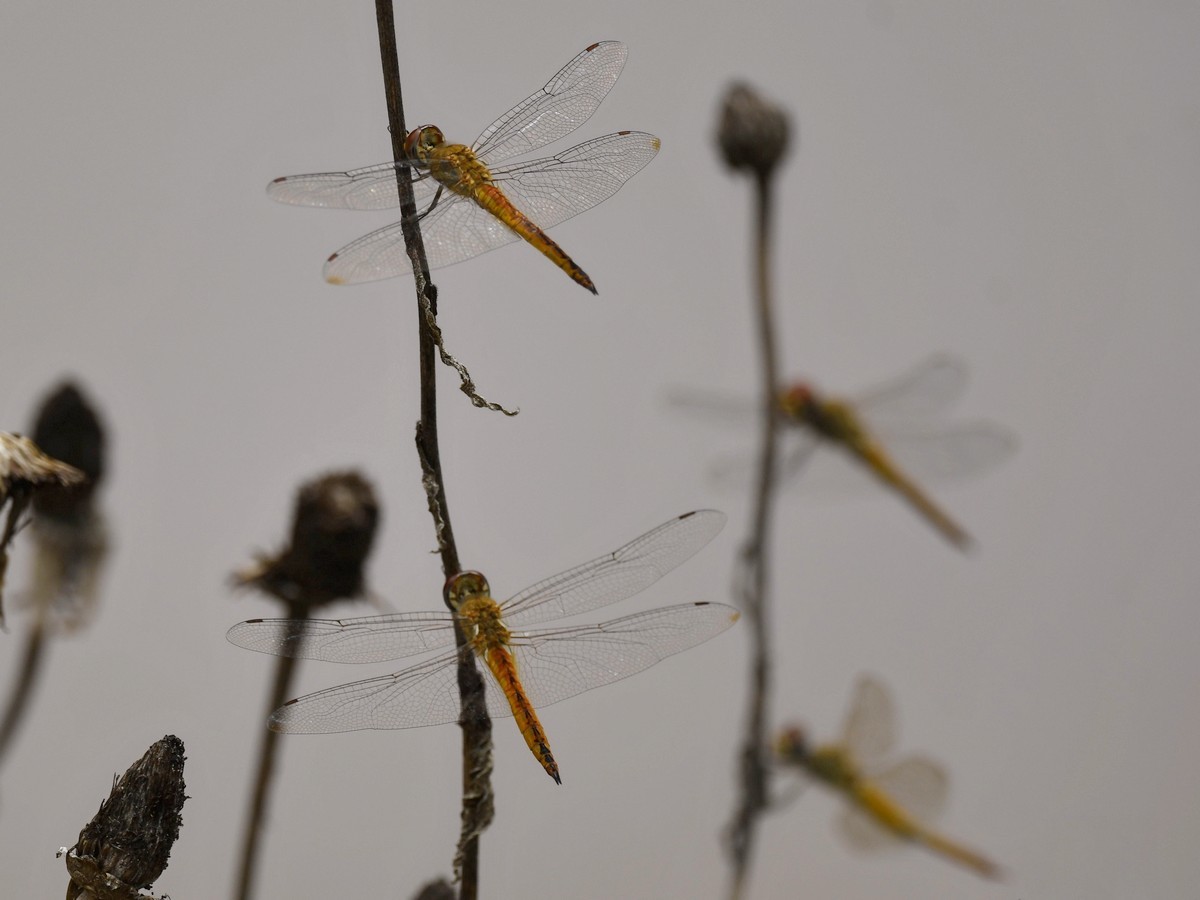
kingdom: Animalia
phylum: Arthropoda
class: Insecta
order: Odonata
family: Libellulidae
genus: Pantala
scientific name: Pantala flavescens
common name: Wandering glider
